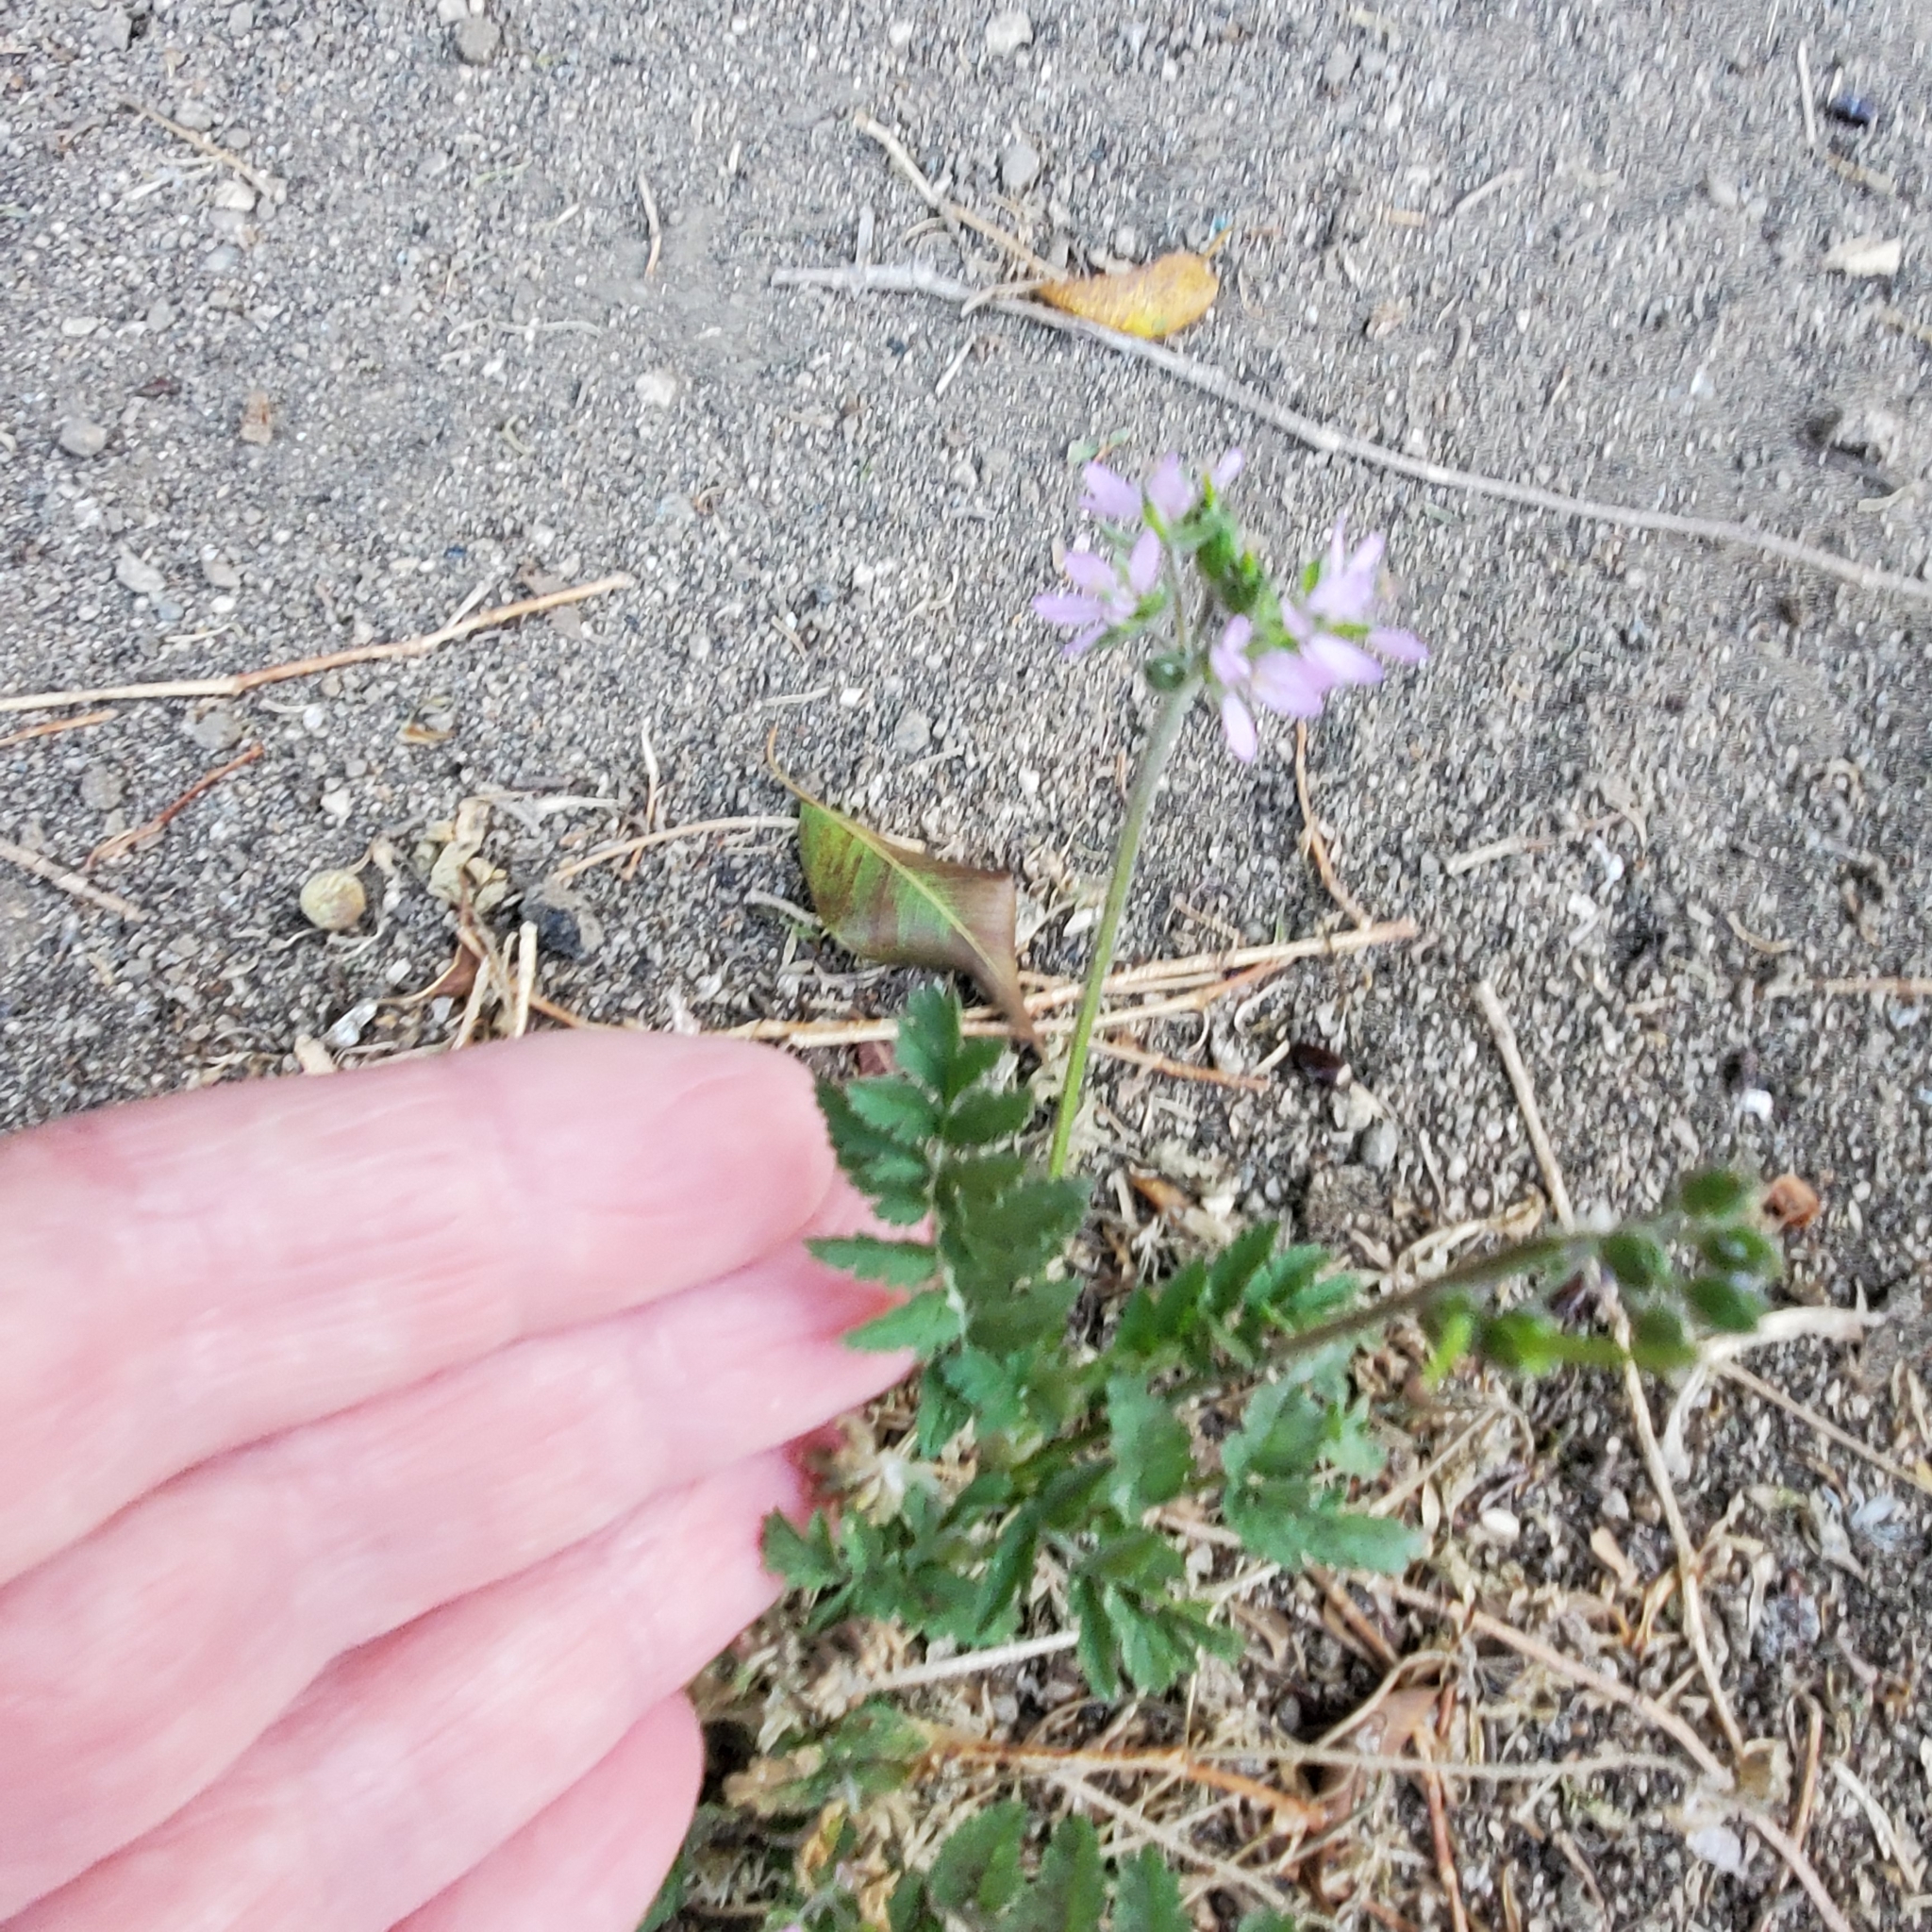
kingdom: Plantae
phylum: Tracheophyta
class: Magnoliopsida
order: Geraniales
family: Geraniaceae
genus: Erodium
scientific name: Erodium moschatum
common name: Musk stork's-bill
